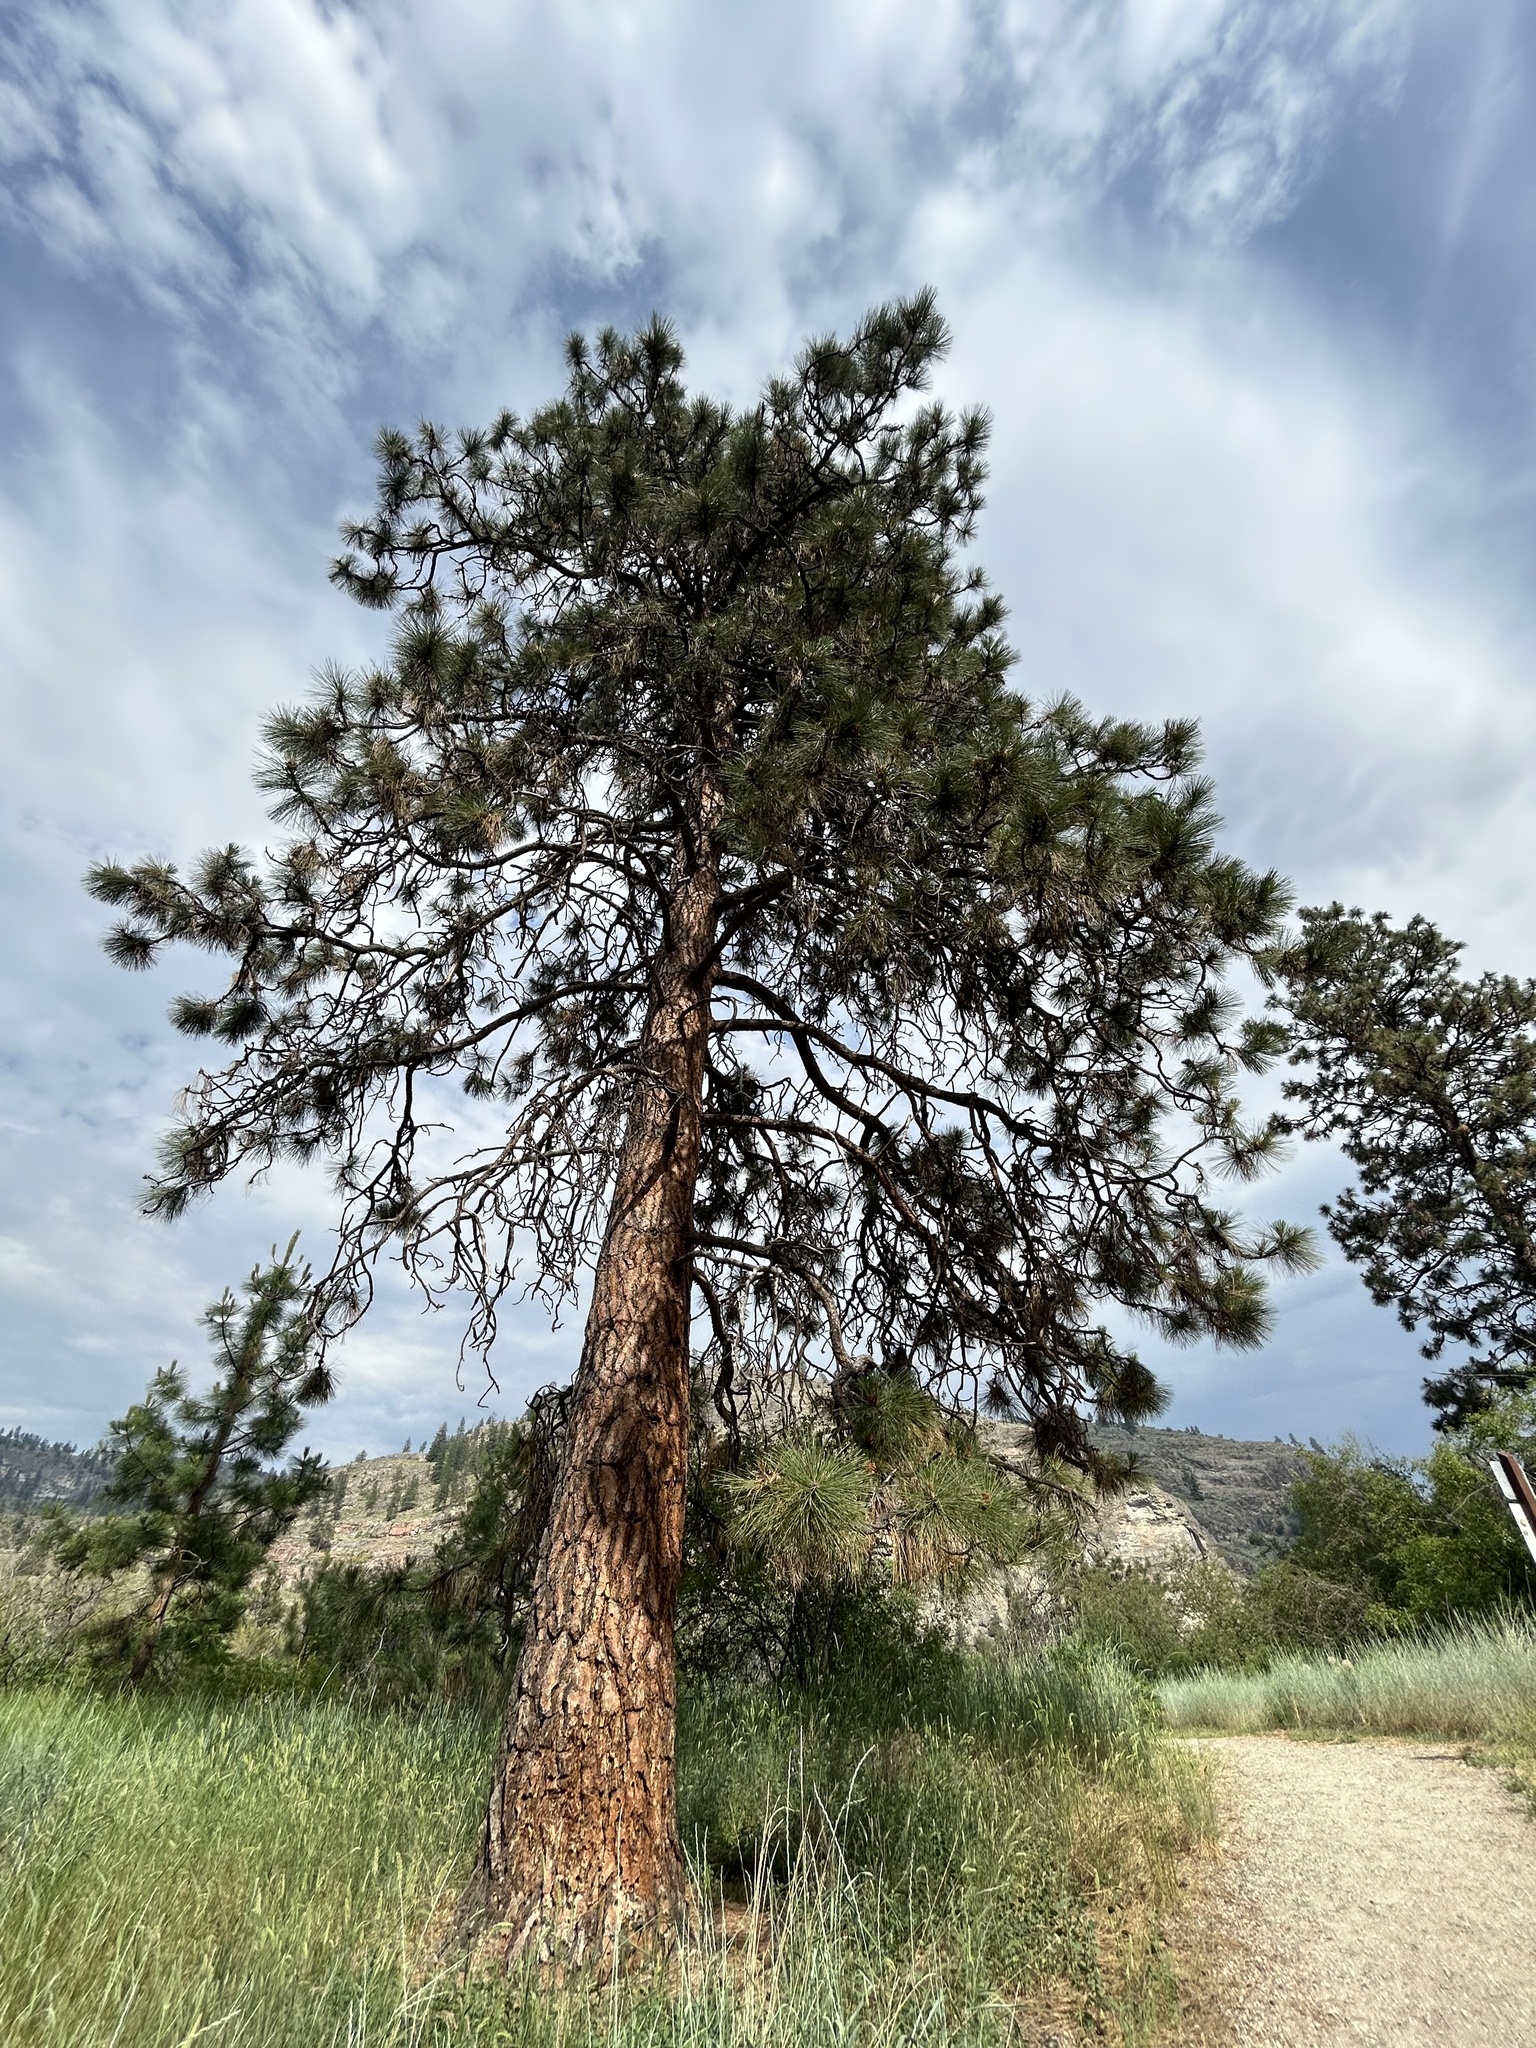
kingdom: Plantae
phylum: Tracheophyta
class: Pinopsida
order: Pinales
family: Pinaceae
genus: Pinus
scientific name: Pinus ponderosa
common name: Western yellow-pine
